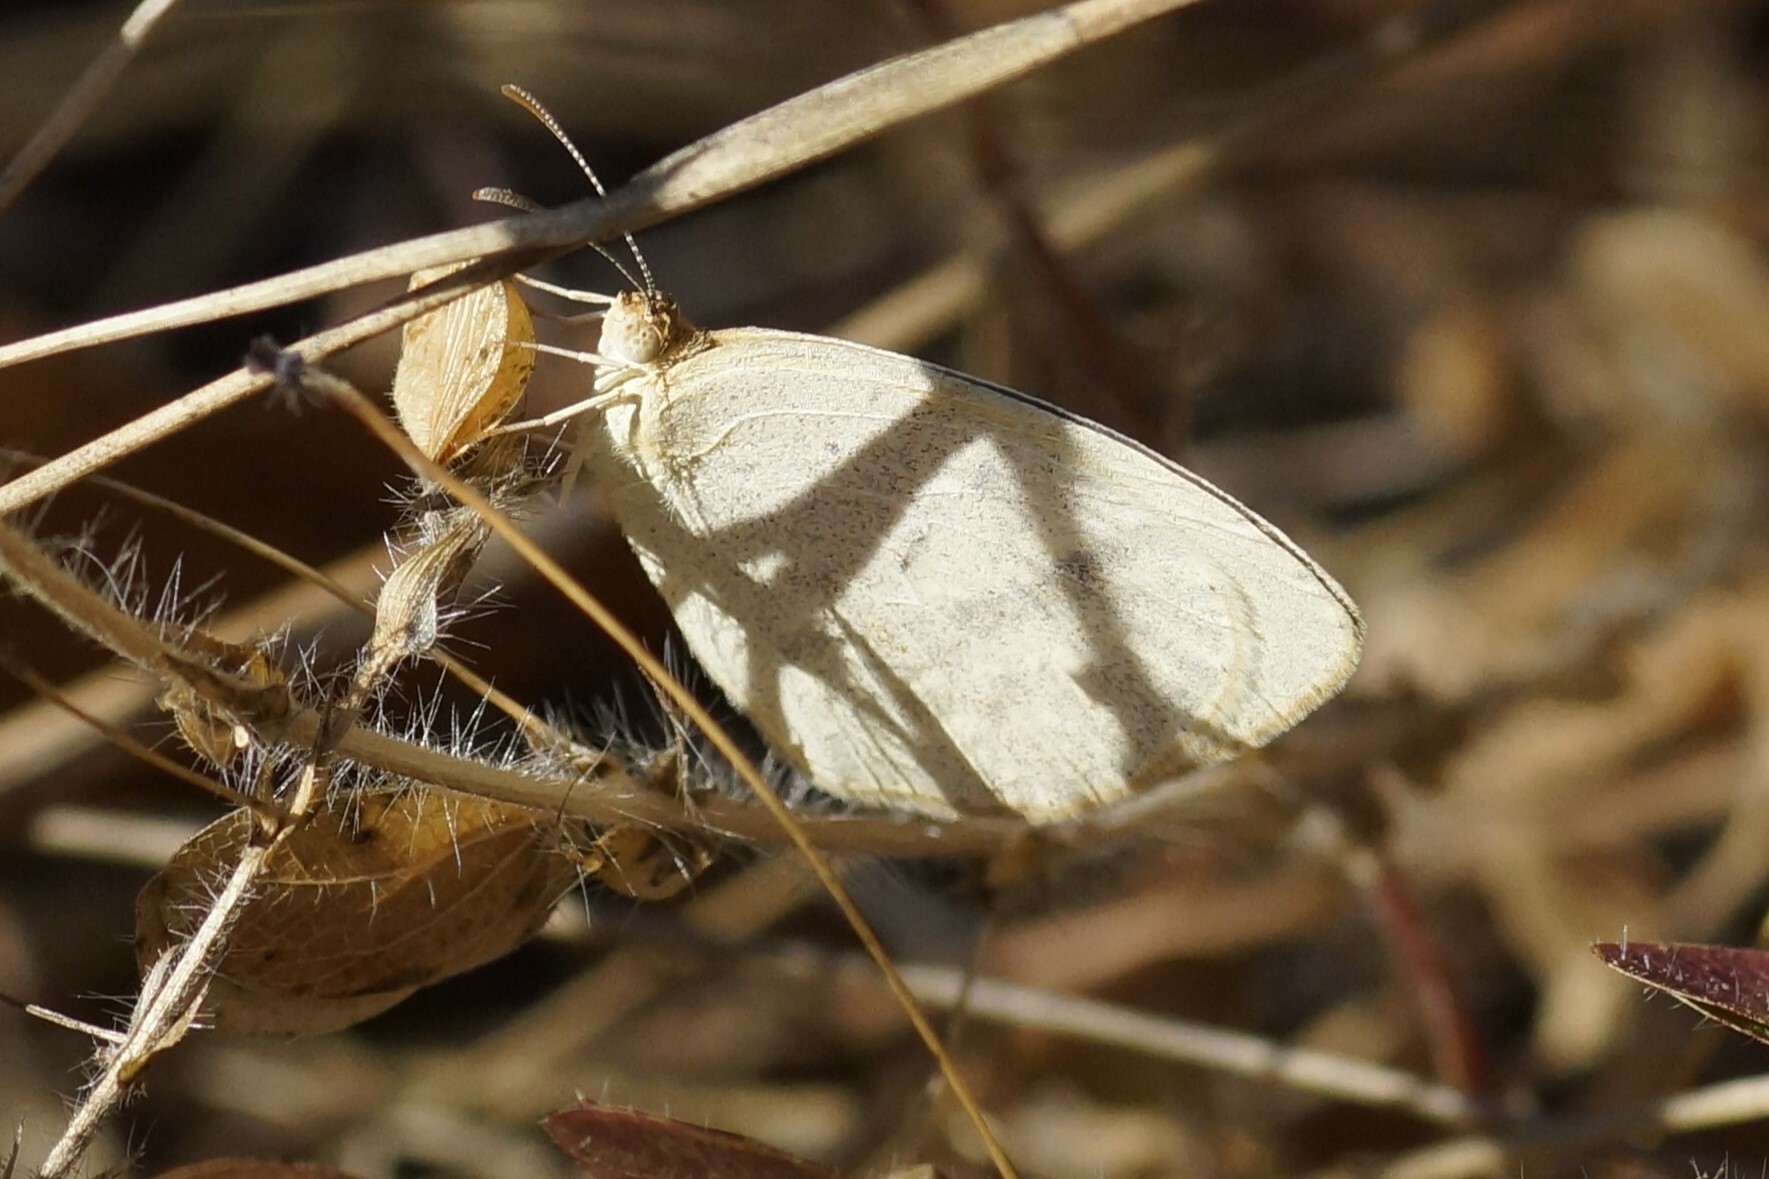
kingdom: Animalia
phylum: Arthropoda
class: Insecta
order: Lepidoptera
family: Pieridae
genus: Eurema
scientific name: Eurema herla
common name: Macleay's grass yellow
